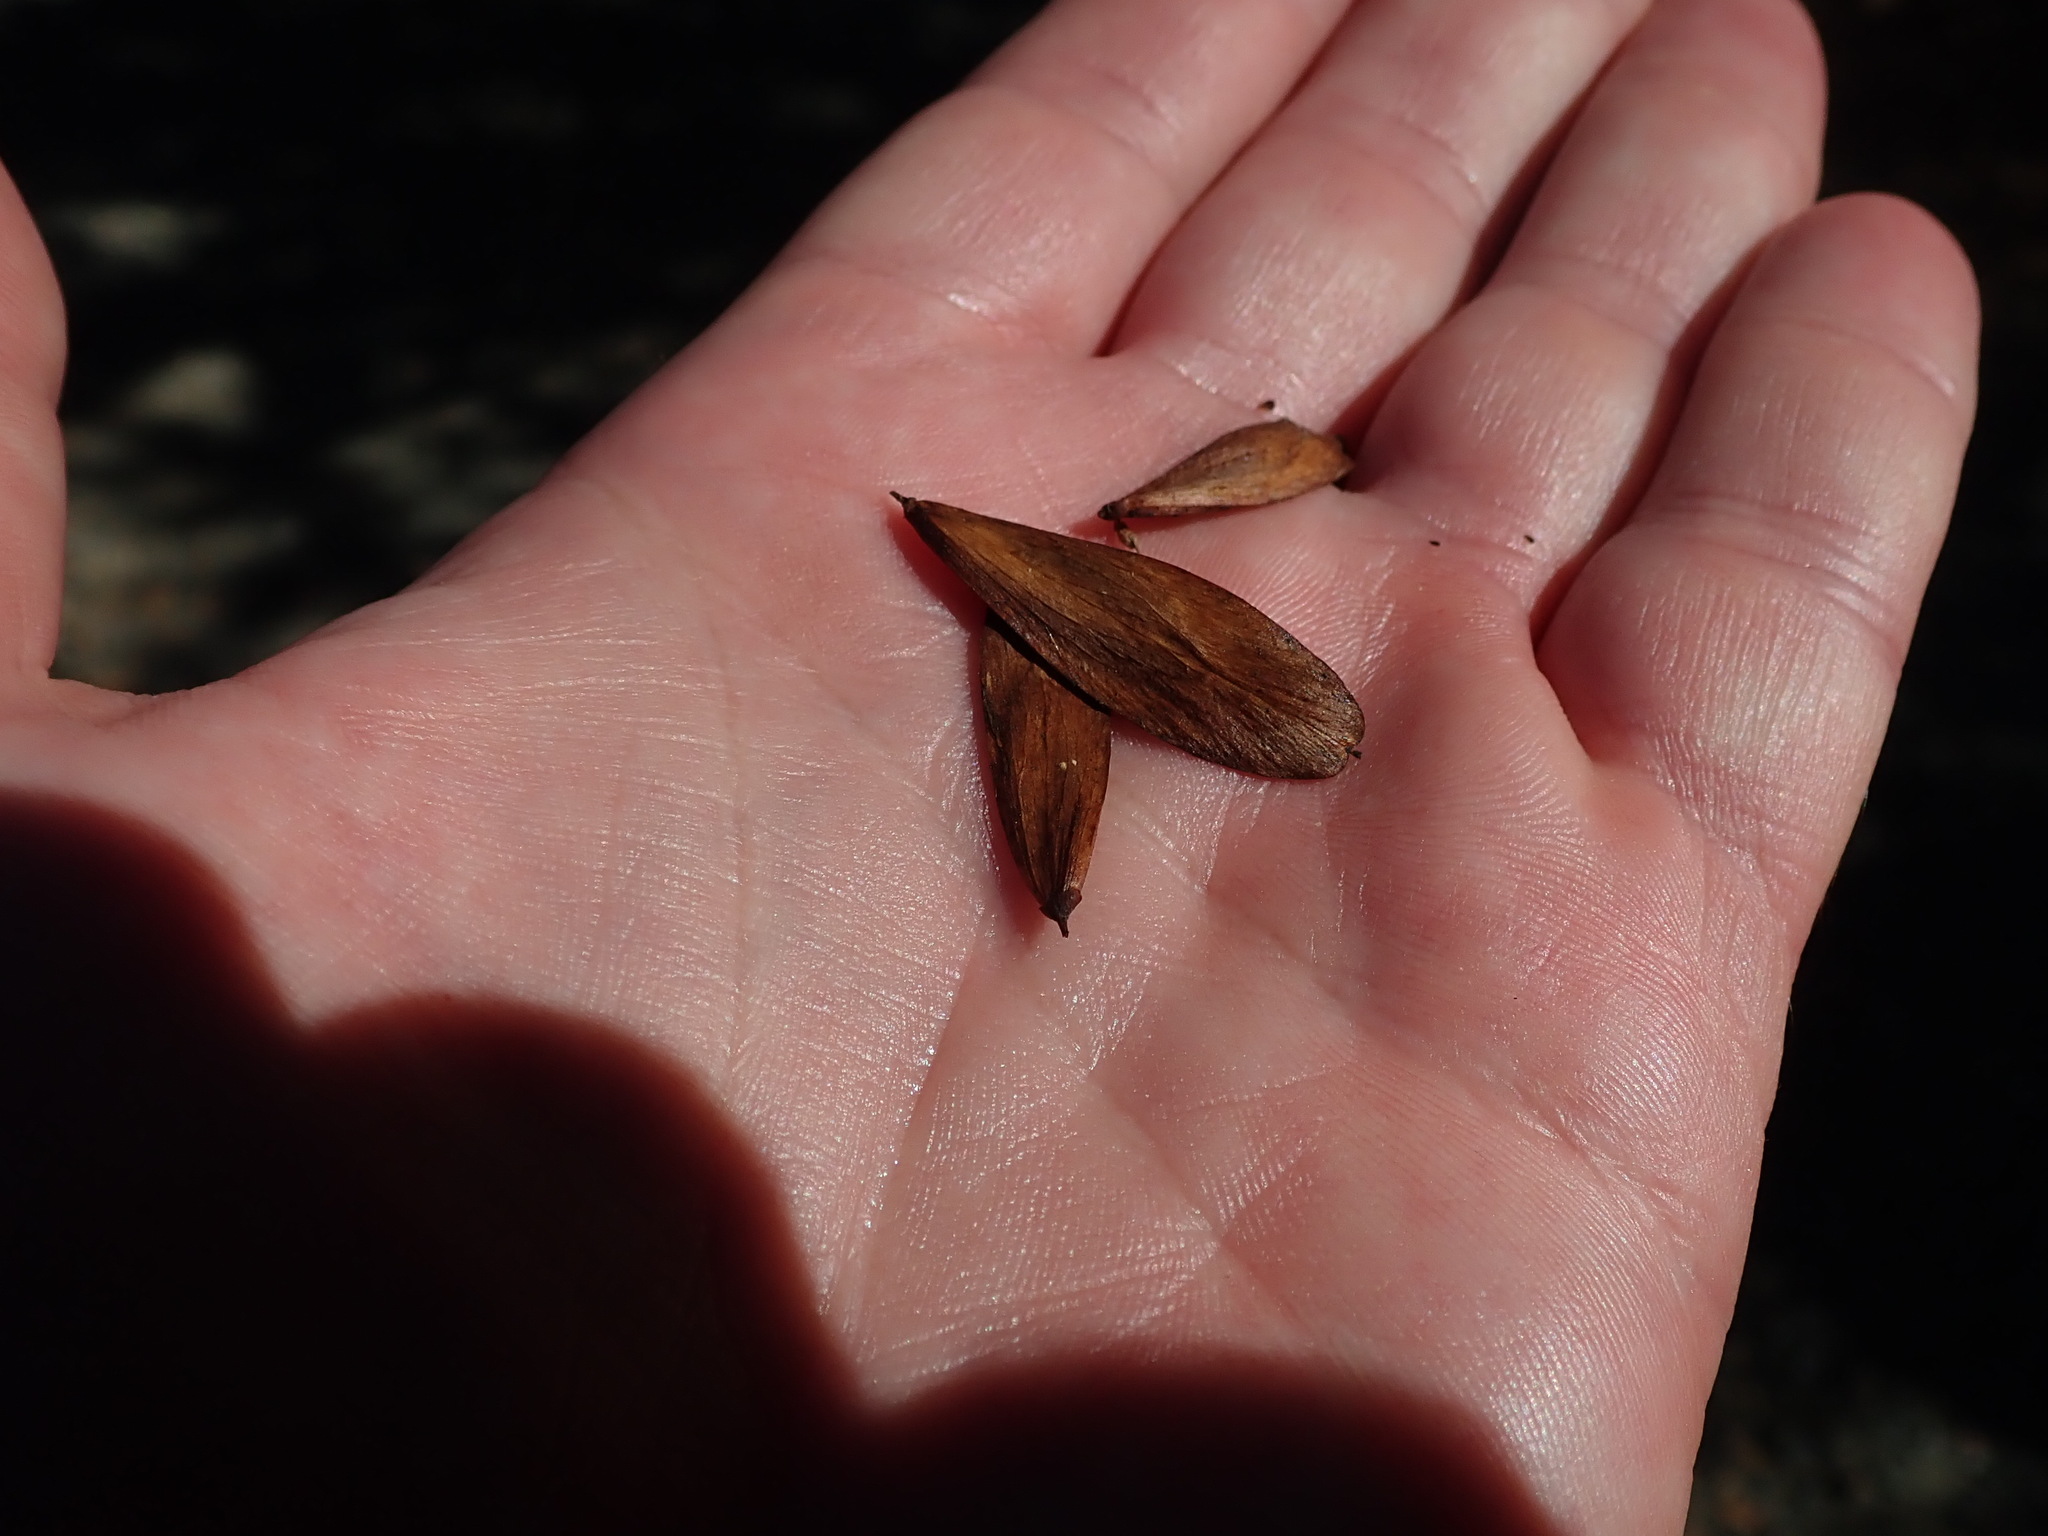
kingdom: Plantae
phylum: Tracheophyta
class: Magnoliopsida
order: Lamiales
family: Oleaceae
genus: Fraxinus
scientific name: Fraxinus dipetala
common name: California ash
